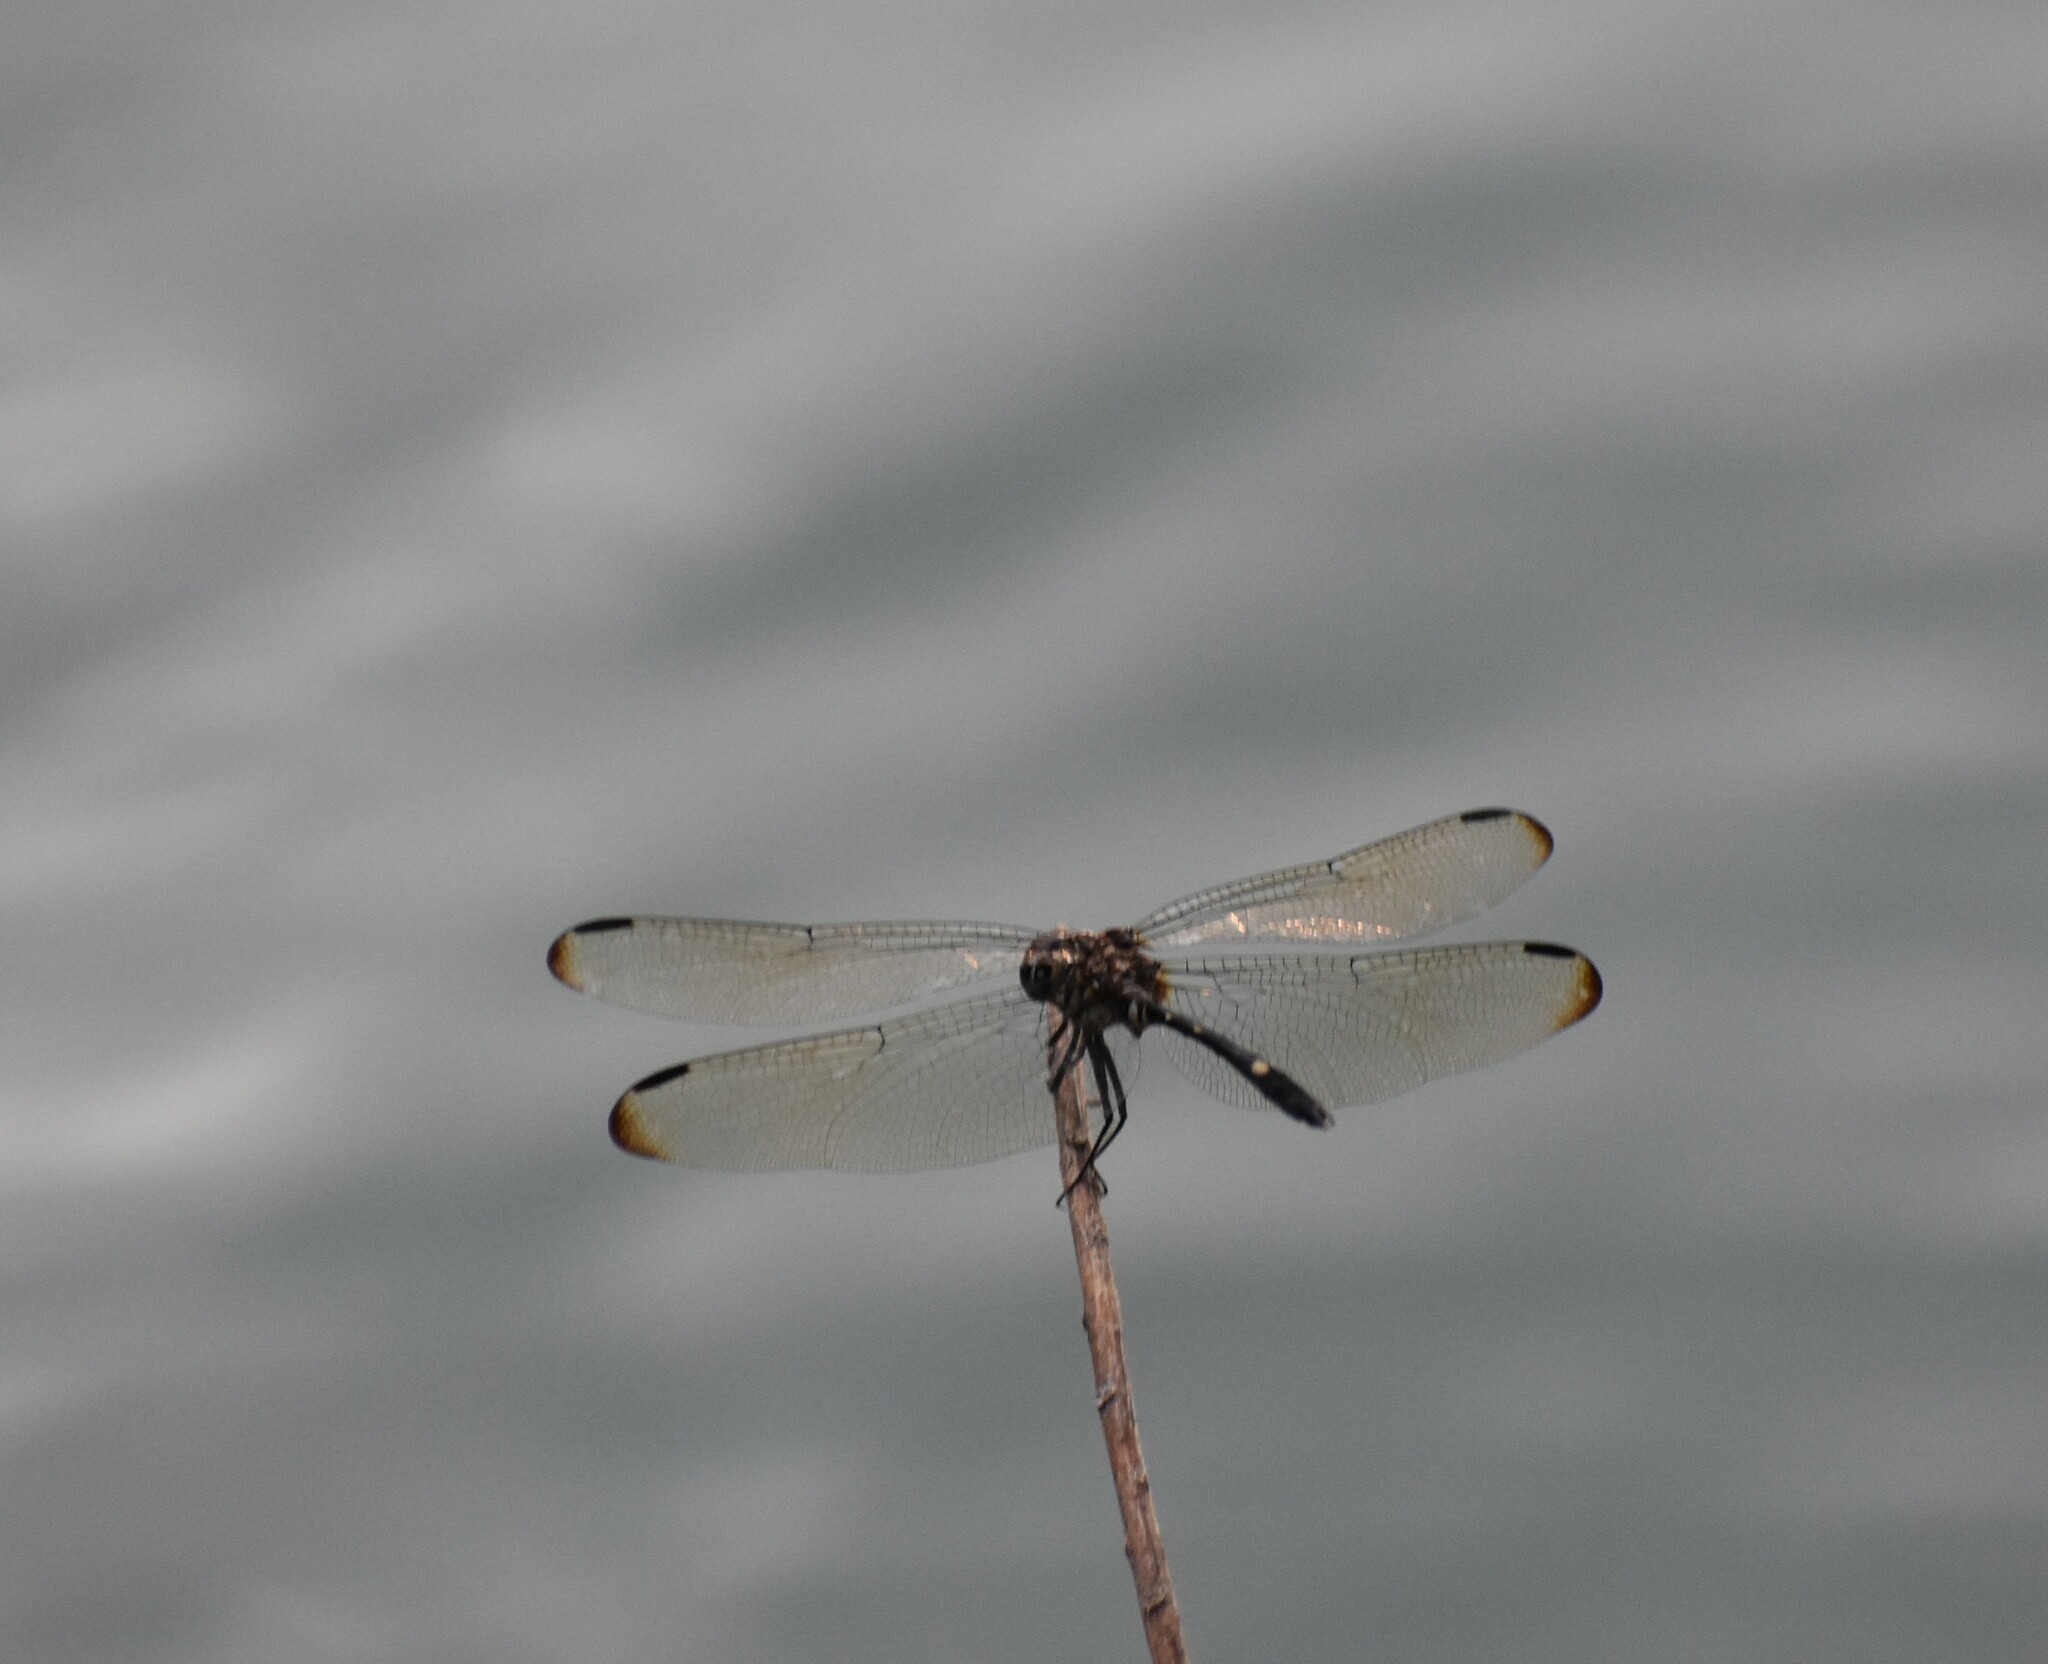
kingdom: Animalia
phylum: Arthropoda
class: Insecta
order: Odonata
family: Libellulidae
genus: Dythemis
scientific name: Dythemis velox
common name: Swift setwing
